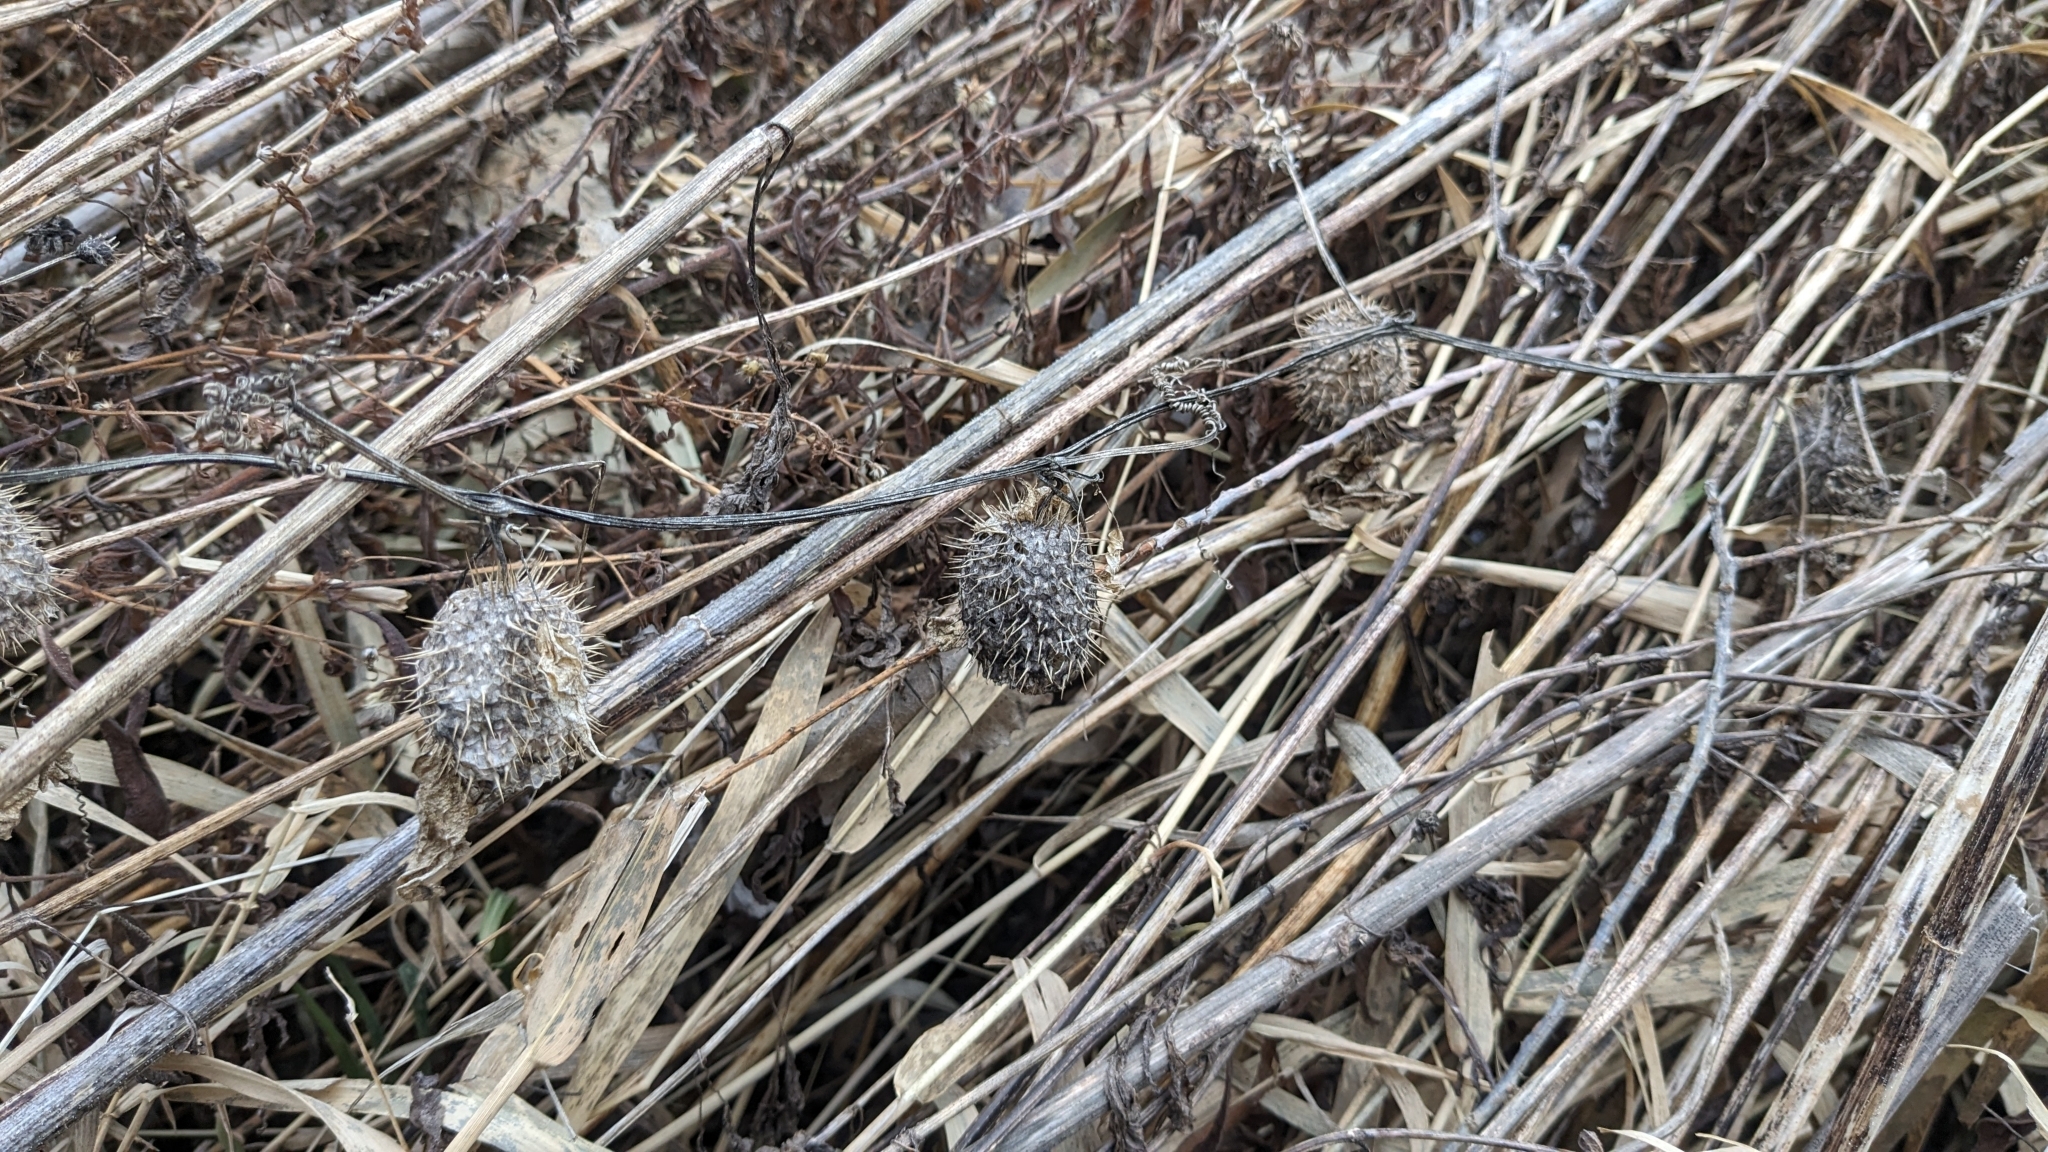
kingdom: Plantae
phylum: Tracheophyta
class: Magnoliopsida
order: Cucurbitales
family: Cucurbitaceae
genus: Echinocystis
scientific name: Echinocystis lobata
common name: Wild cucumber
